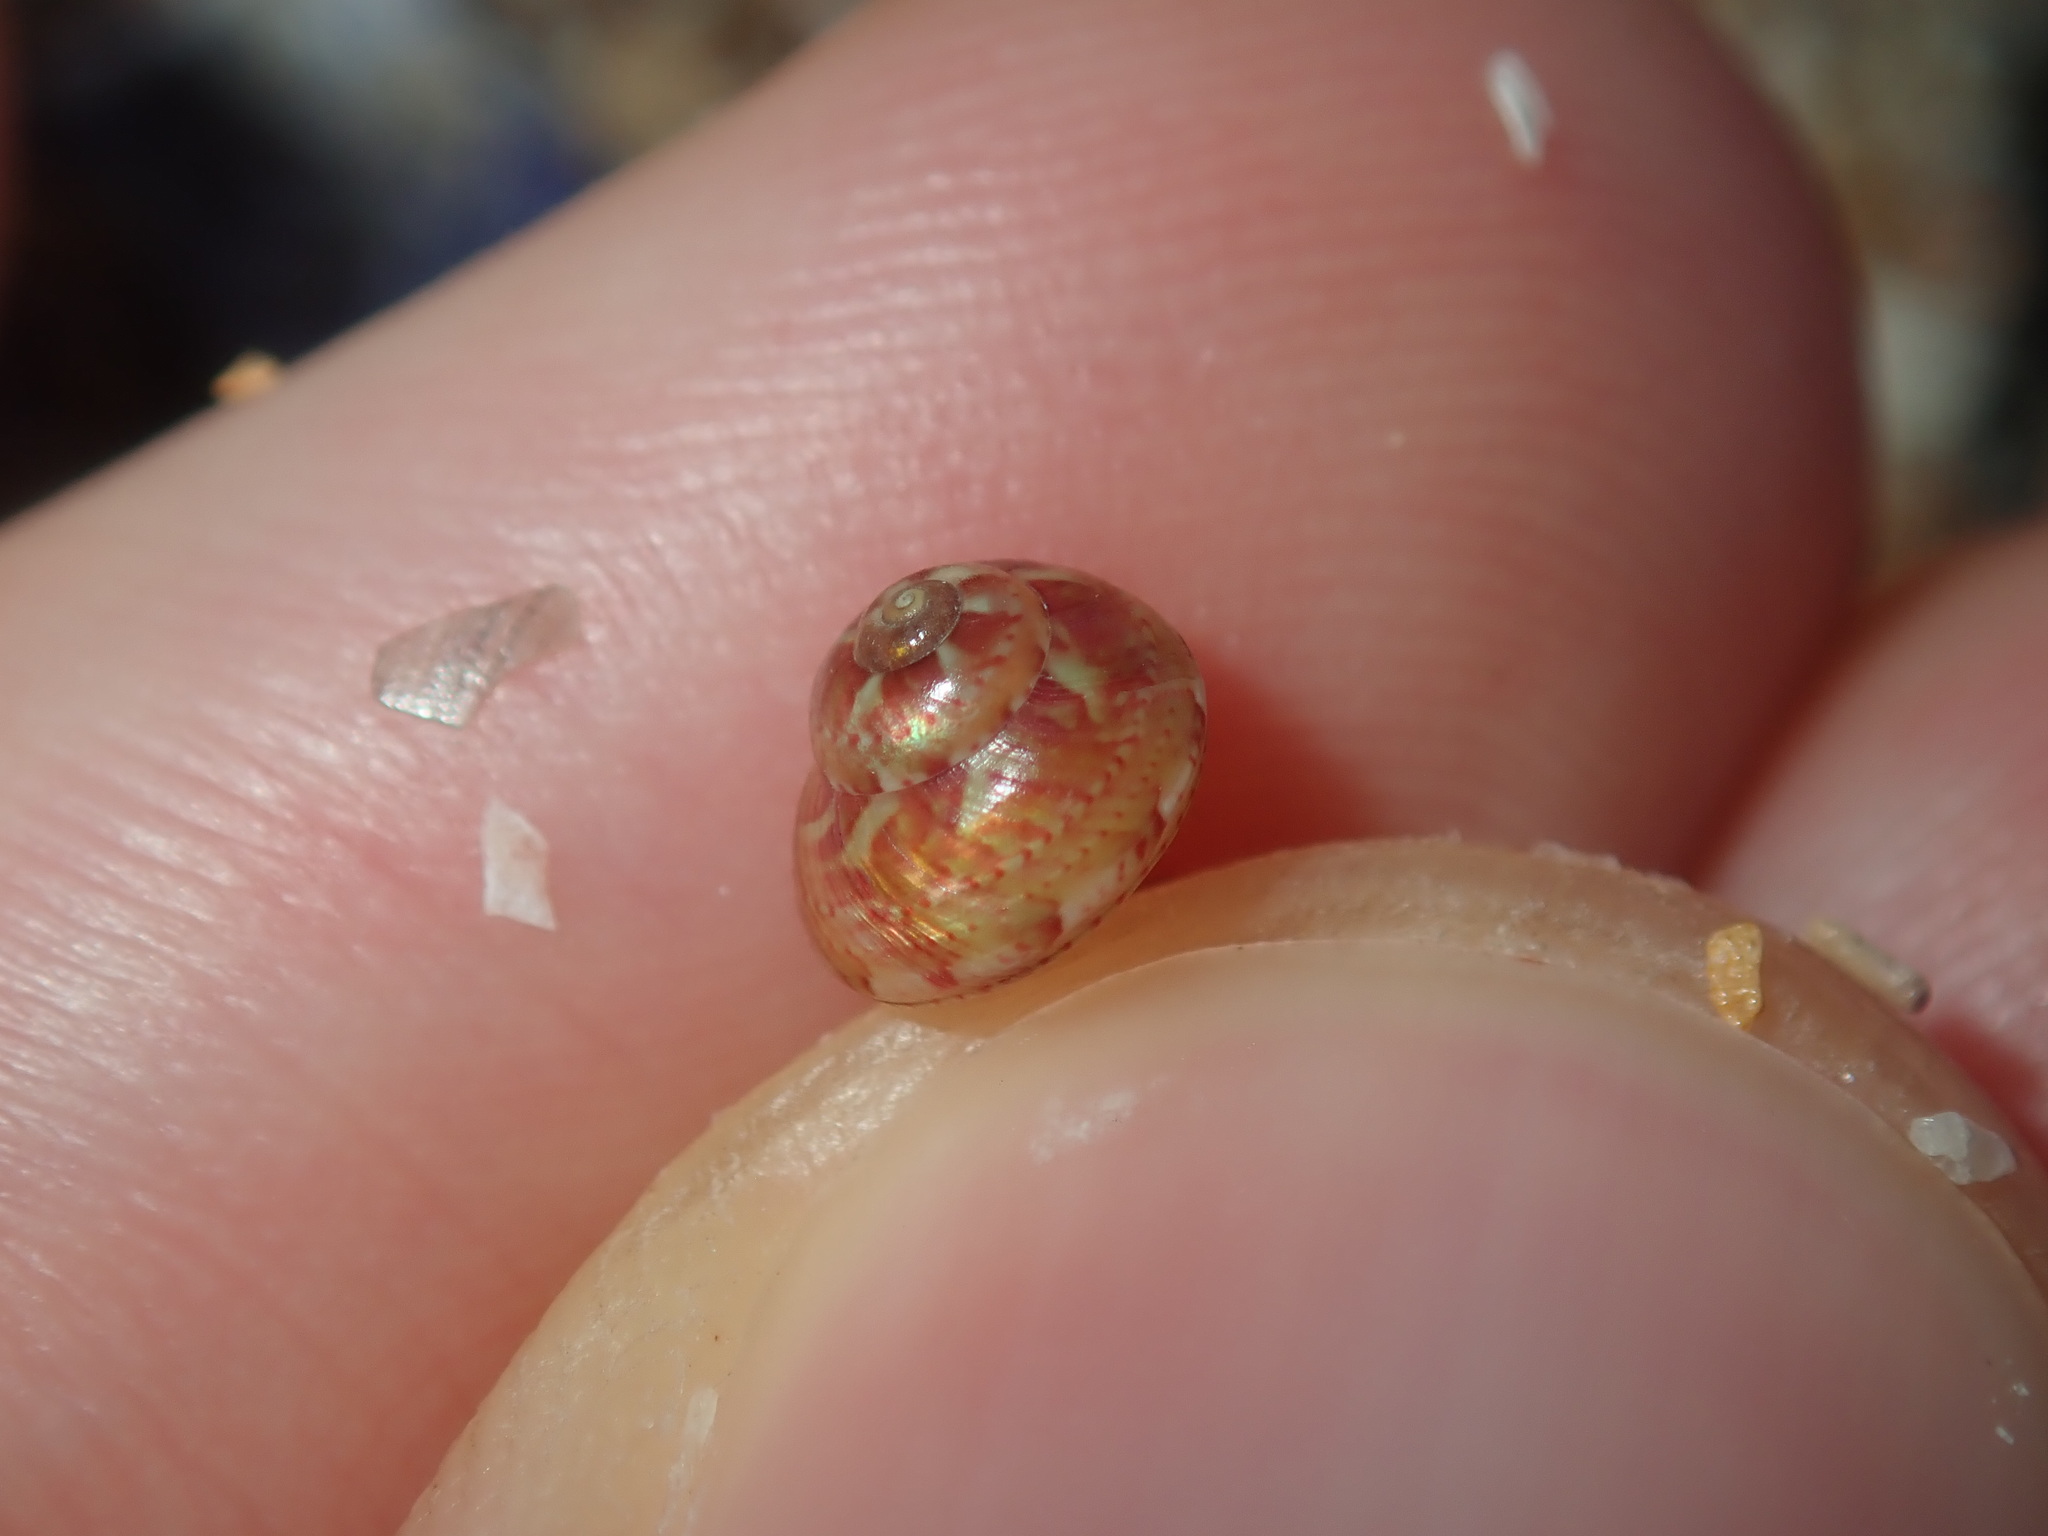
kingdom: Animalia
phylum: Mollusca
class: Gastropoda
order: Trochida
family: Trochidae
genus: Cantharidella
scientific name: Cantharidella picturata
